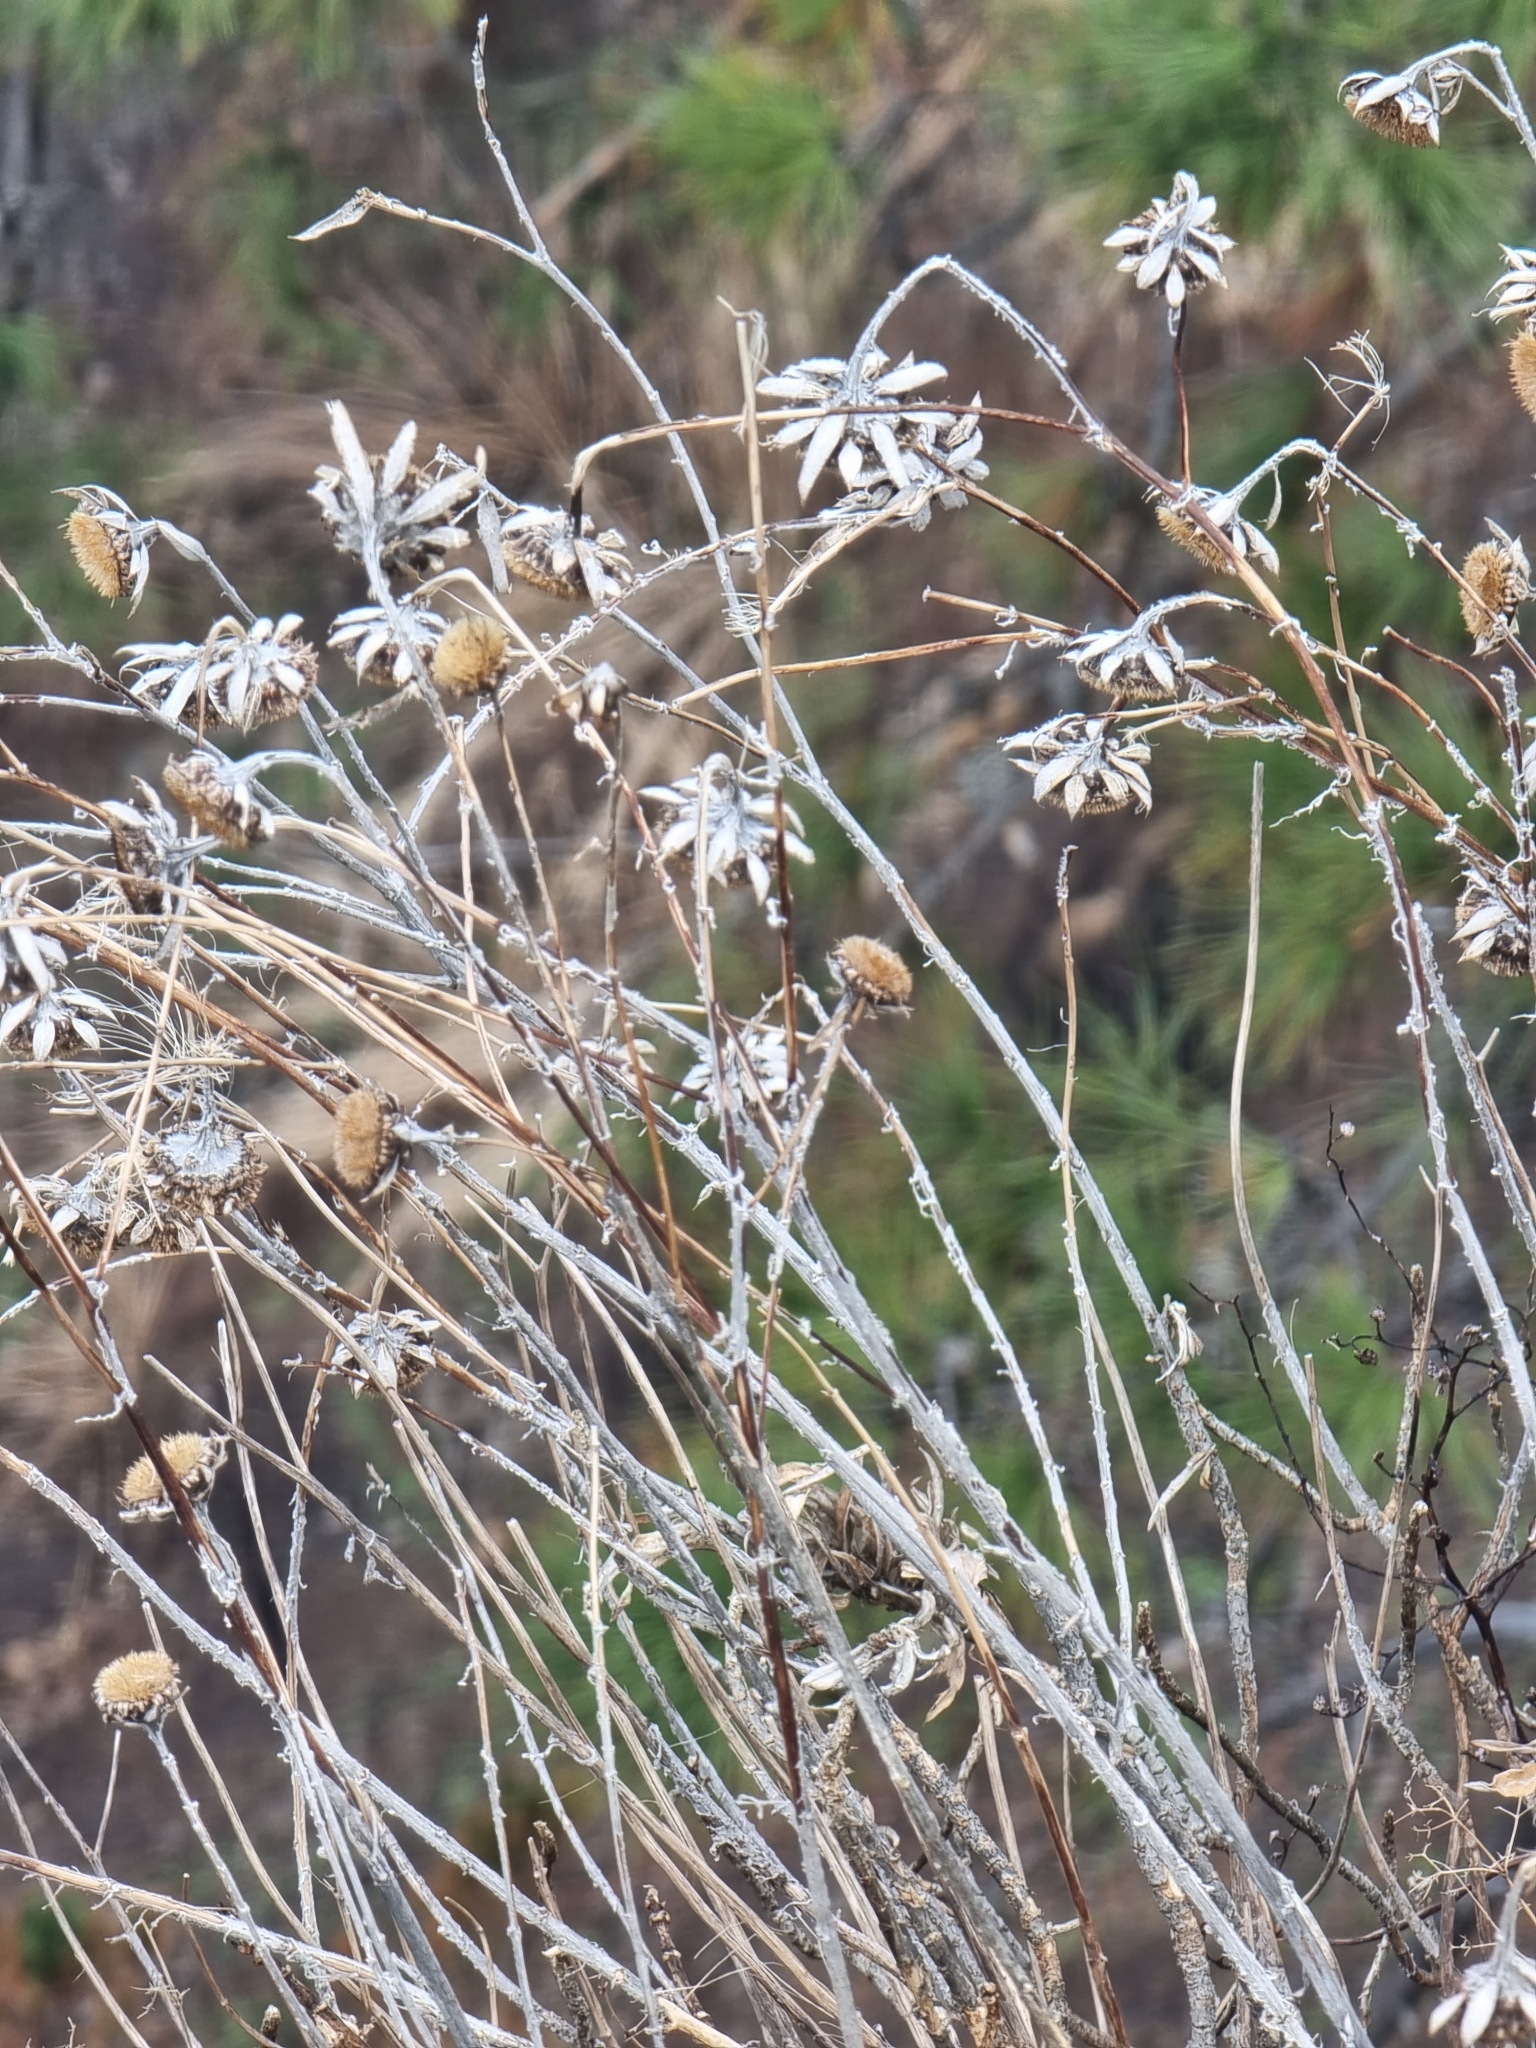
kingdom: Plantae
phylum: Tracheophyta
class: Magnoliopsida
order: Asterales
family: Asteraceae
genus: Carlina
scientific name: Carlina salicifolia
